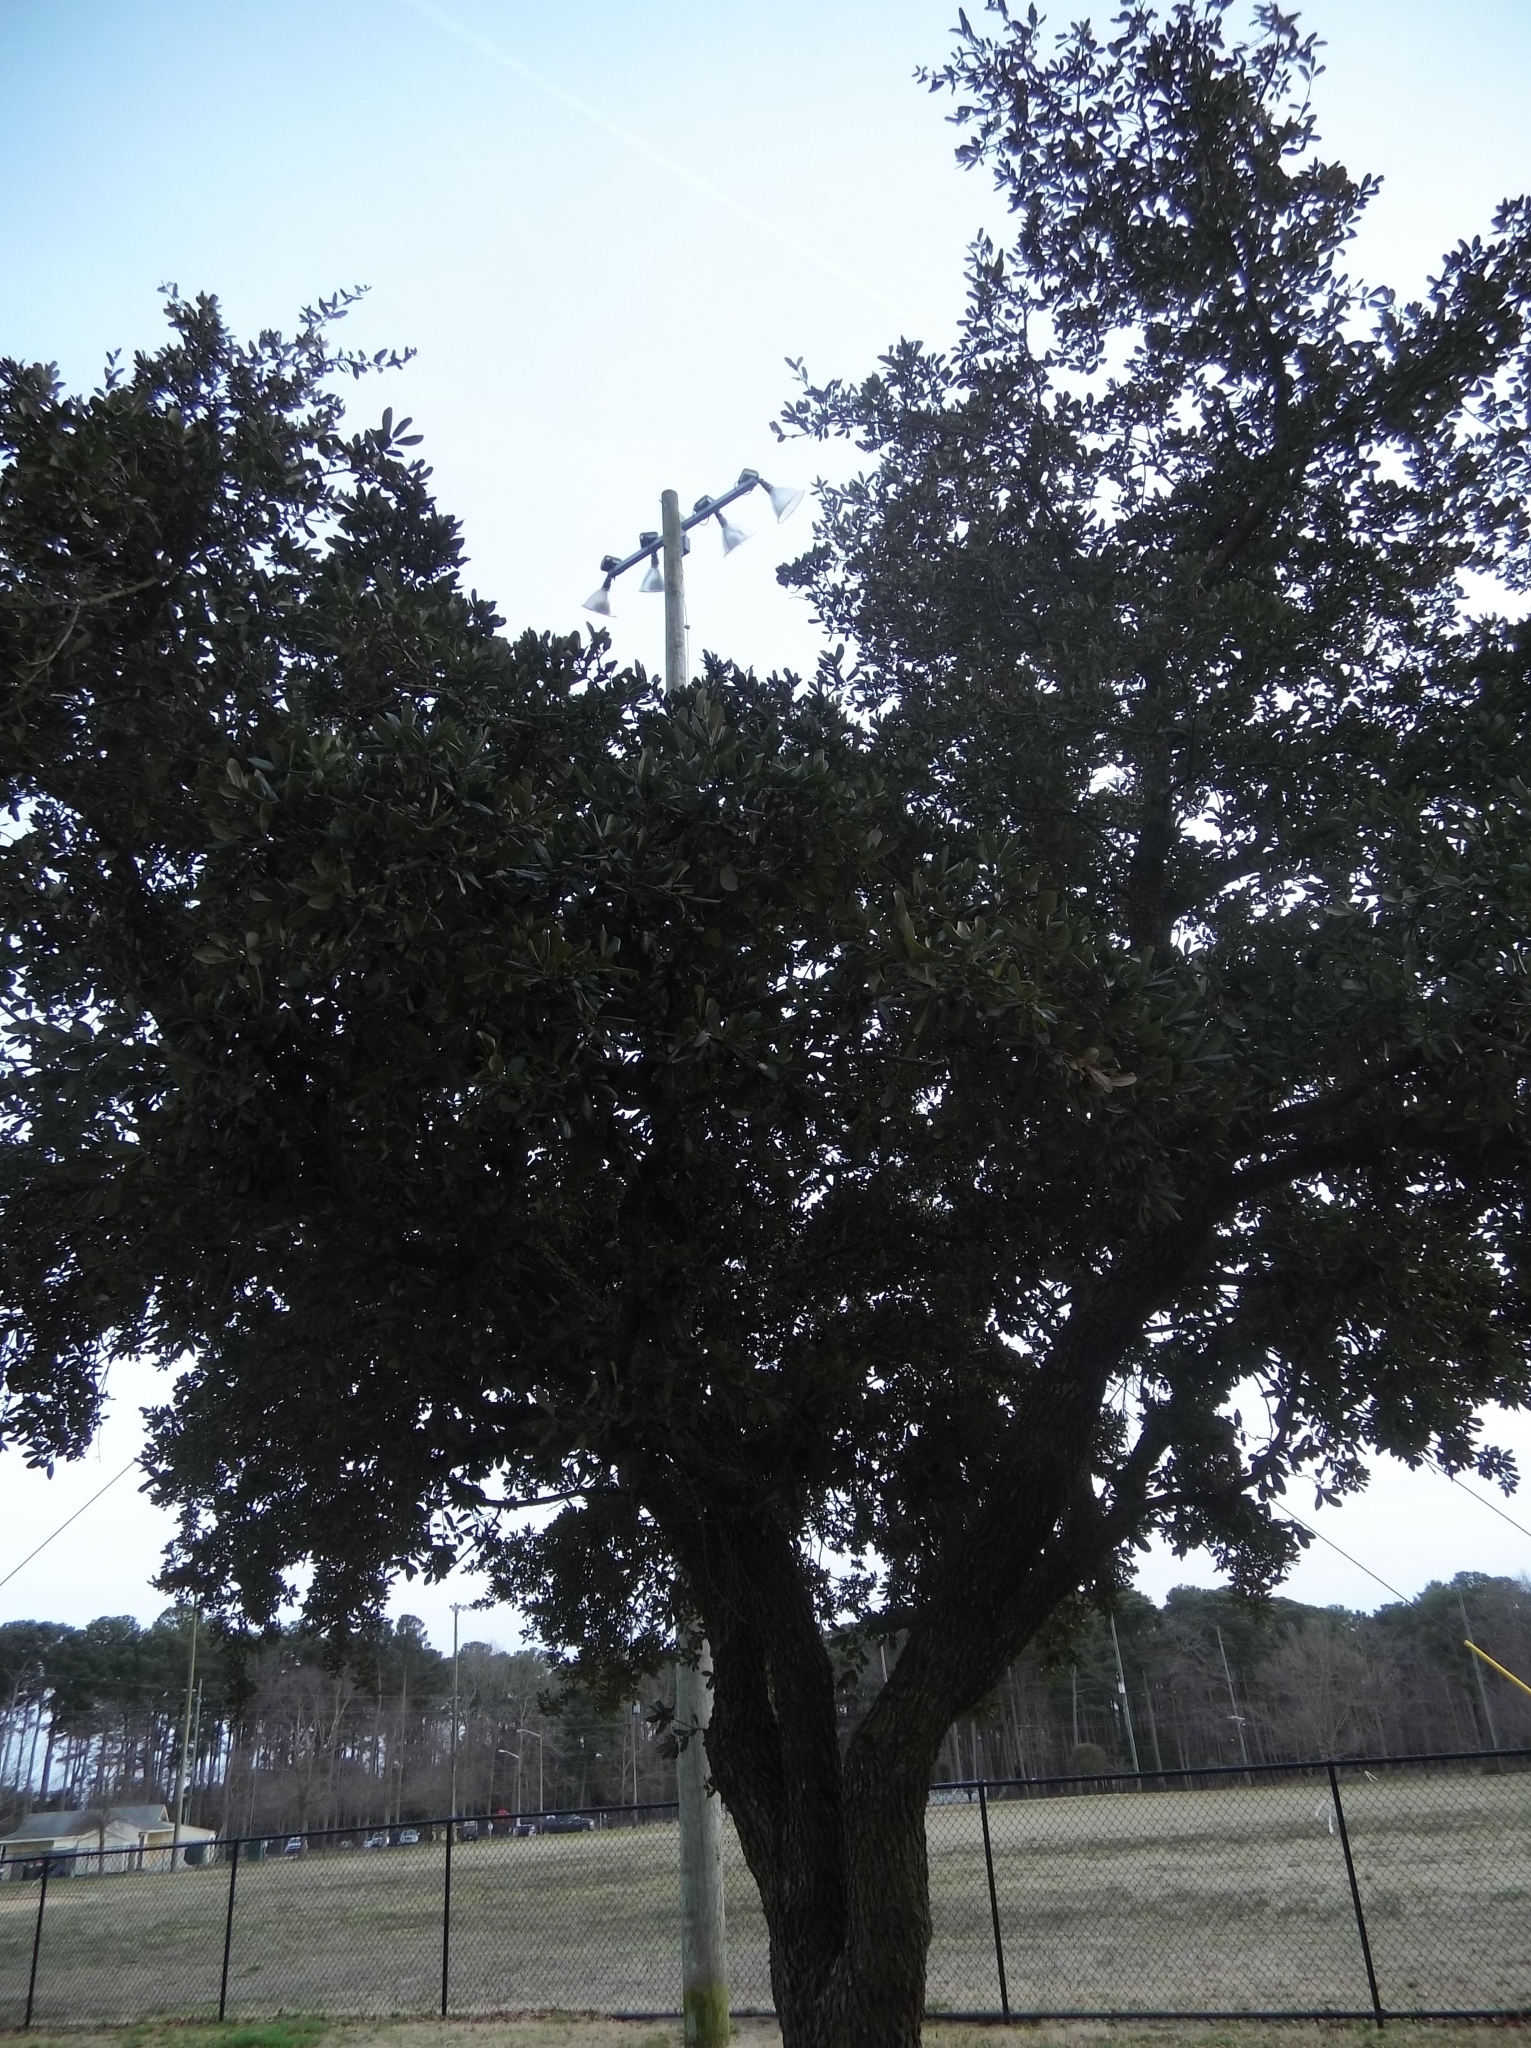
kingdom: Plantae
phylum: Tracheophyta
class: Magnoliopsida
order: Fagales
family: Fagaceae
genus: Quercus
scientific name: Quercus virginiana
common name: Southern live oak
